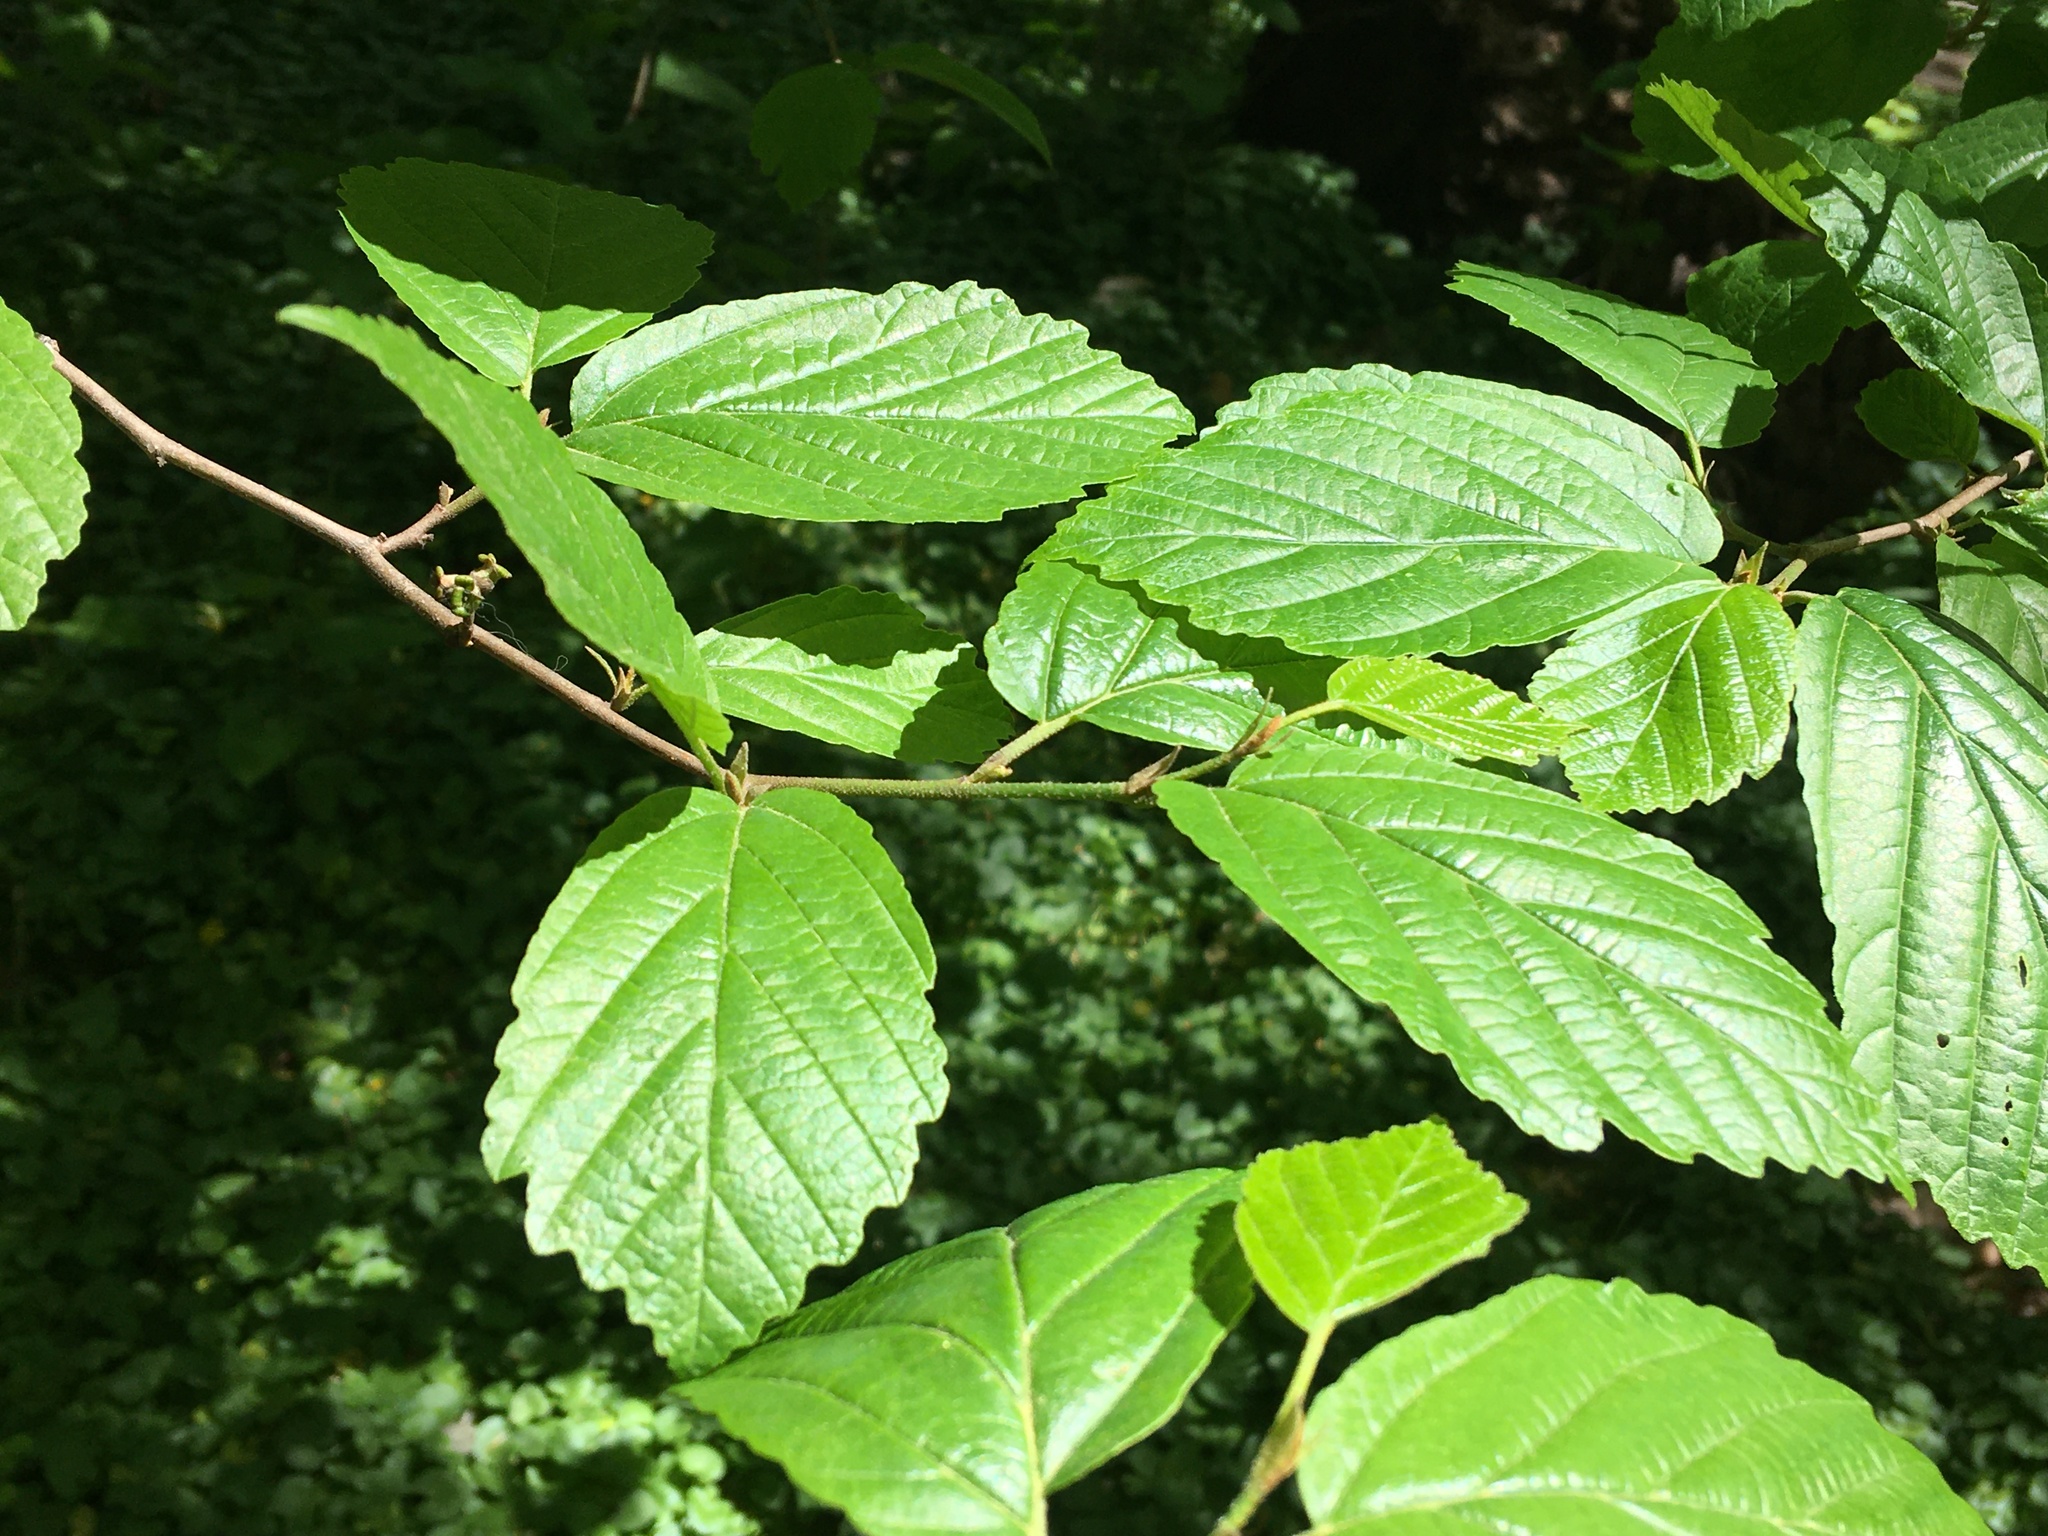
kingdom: Plantae
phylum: Tracheophyta
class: Magnoliopsida
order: Saxifragales
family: Hamamelidaceae
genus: Hamamelis
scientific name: Hamamelis virginiana
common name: Witch-hazel
